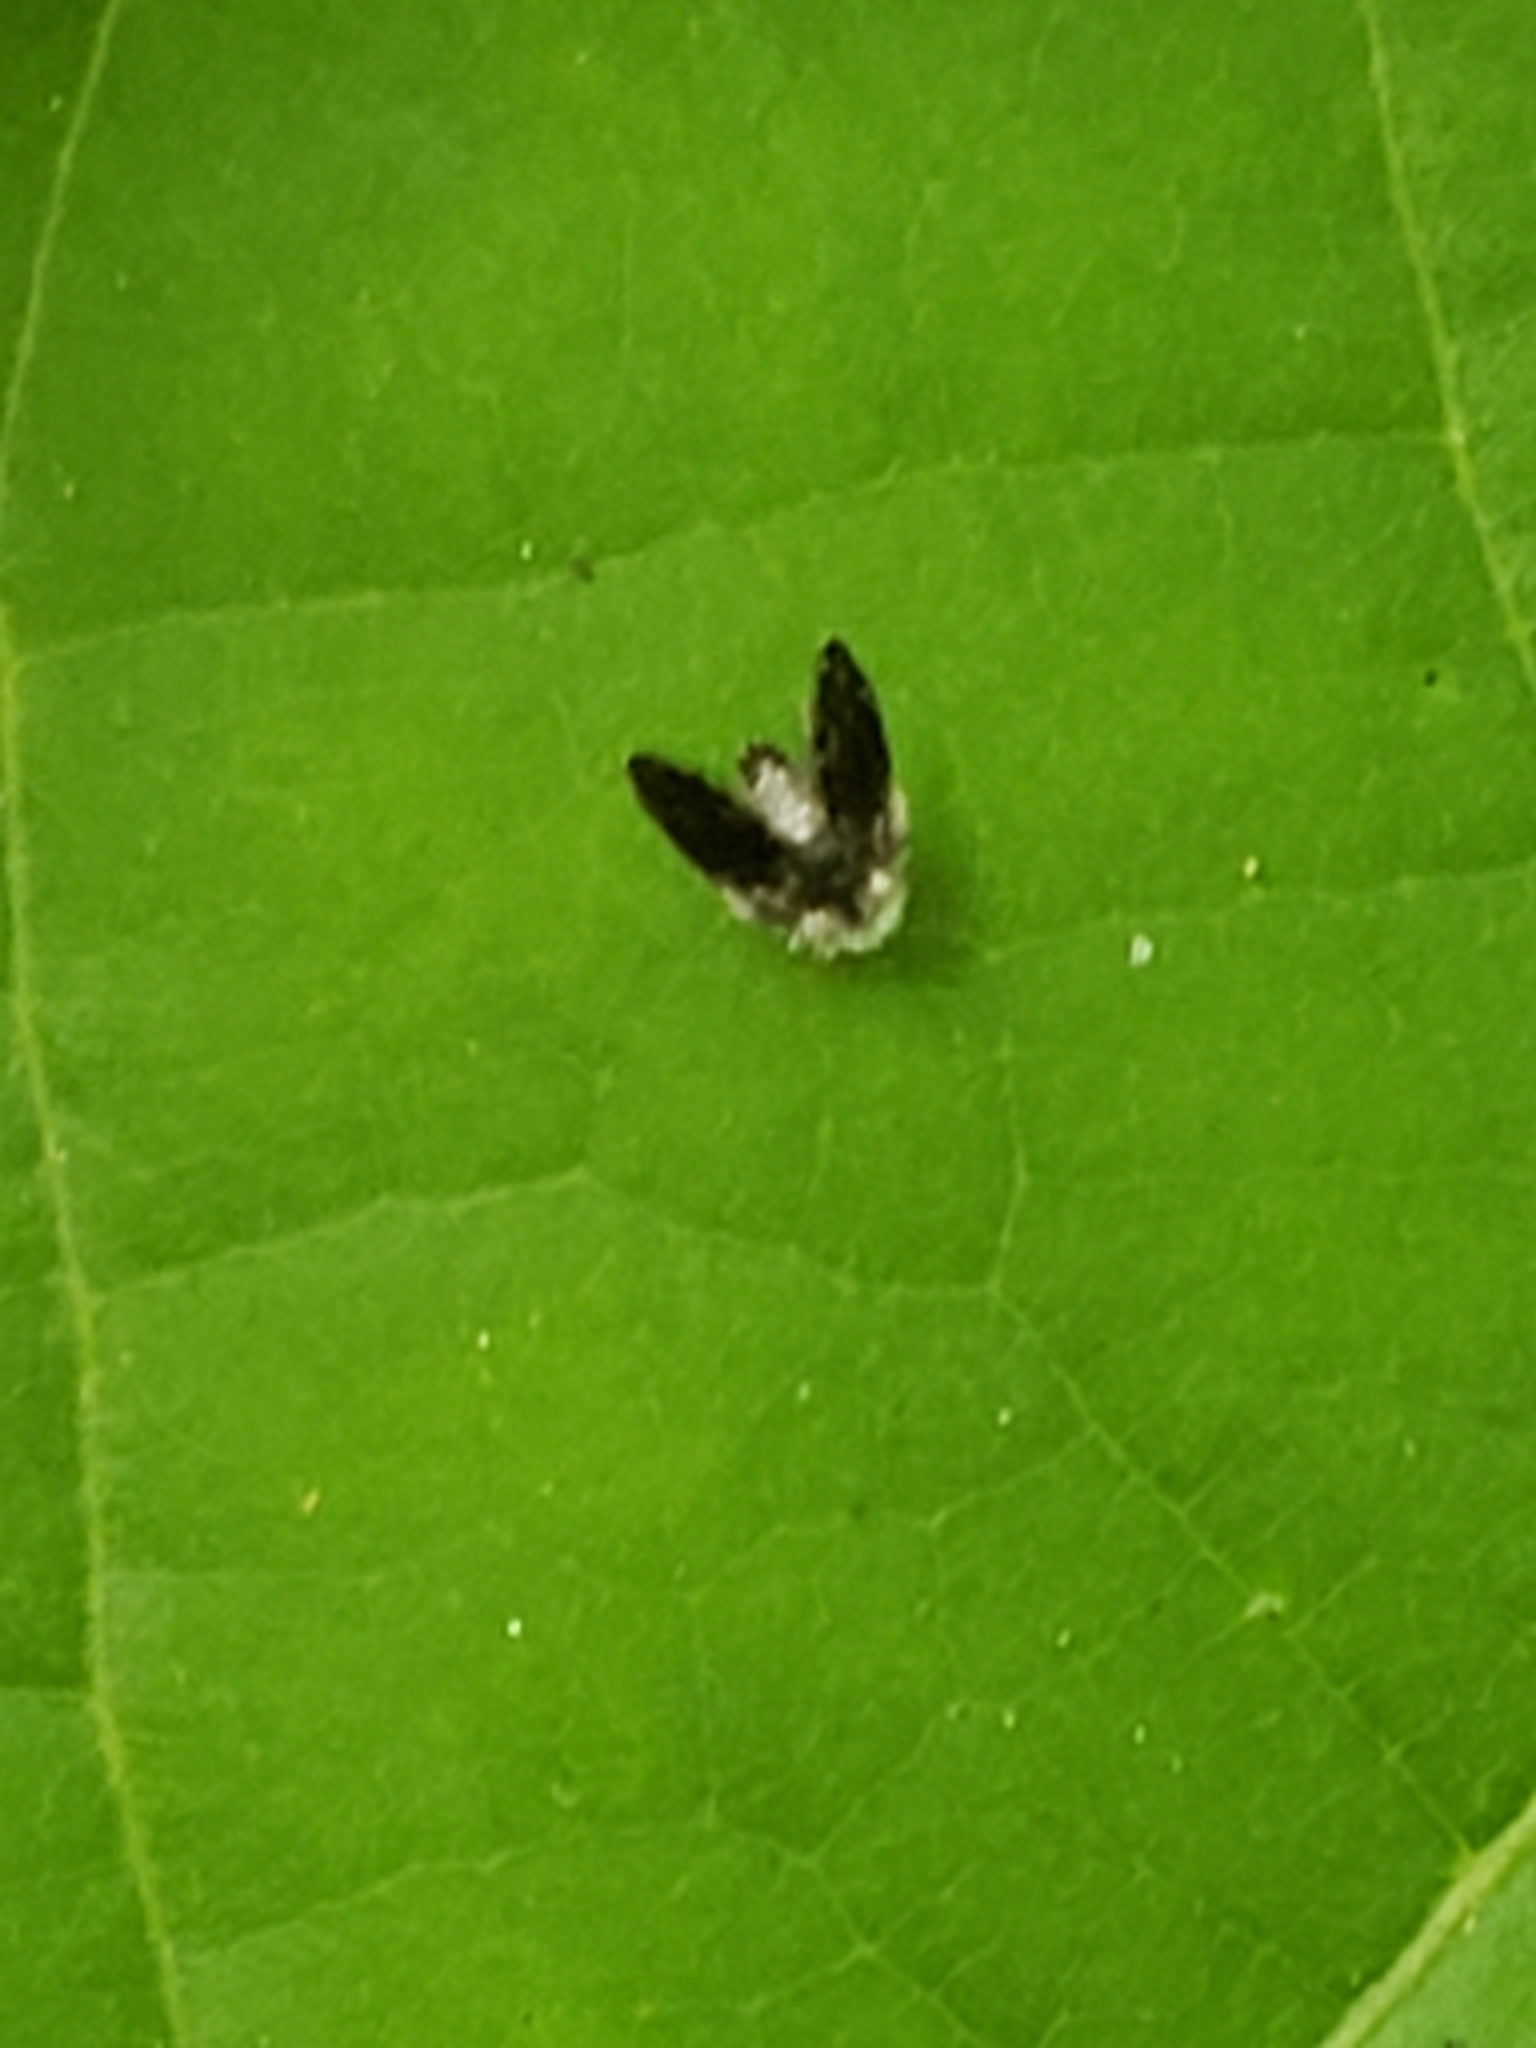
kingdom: Animalia
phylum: Arthropoda
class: Insecta
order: Diptera
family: Psychodidae
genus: Setomima
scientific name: Setomima
